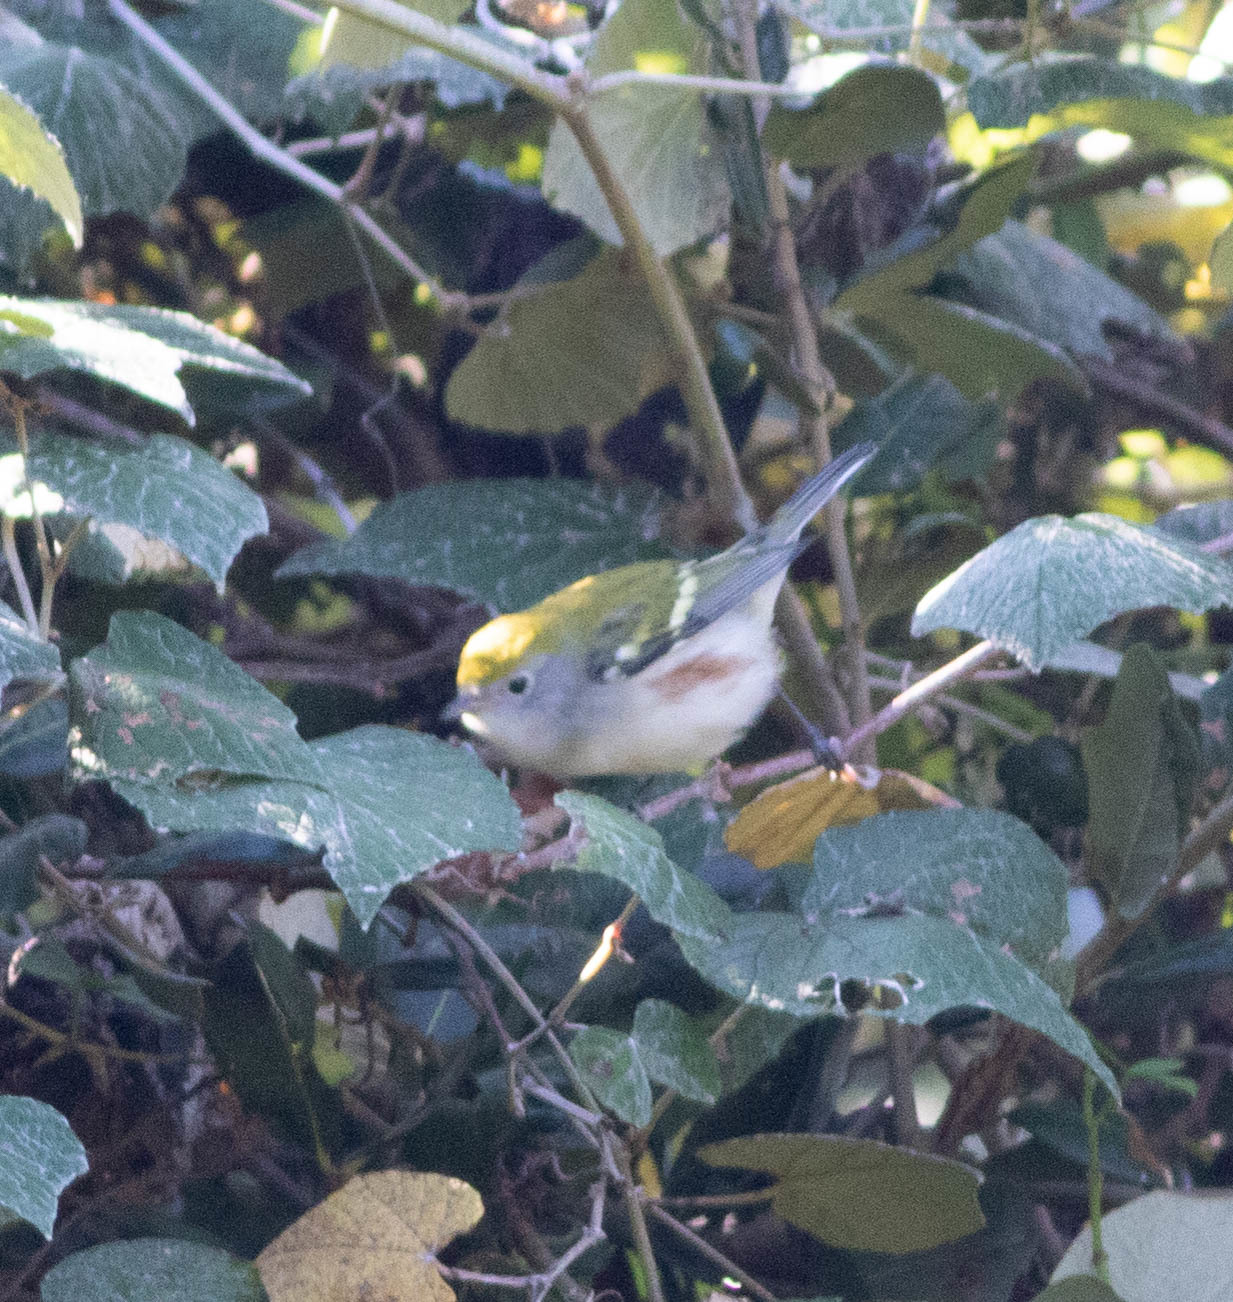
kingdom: Animalia
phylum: Chordata
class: Aves
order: Passeriformes
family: Parulidae
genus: Setophaga
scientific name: Setophaga pensylvanica
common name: Chestnut-sided warbler
